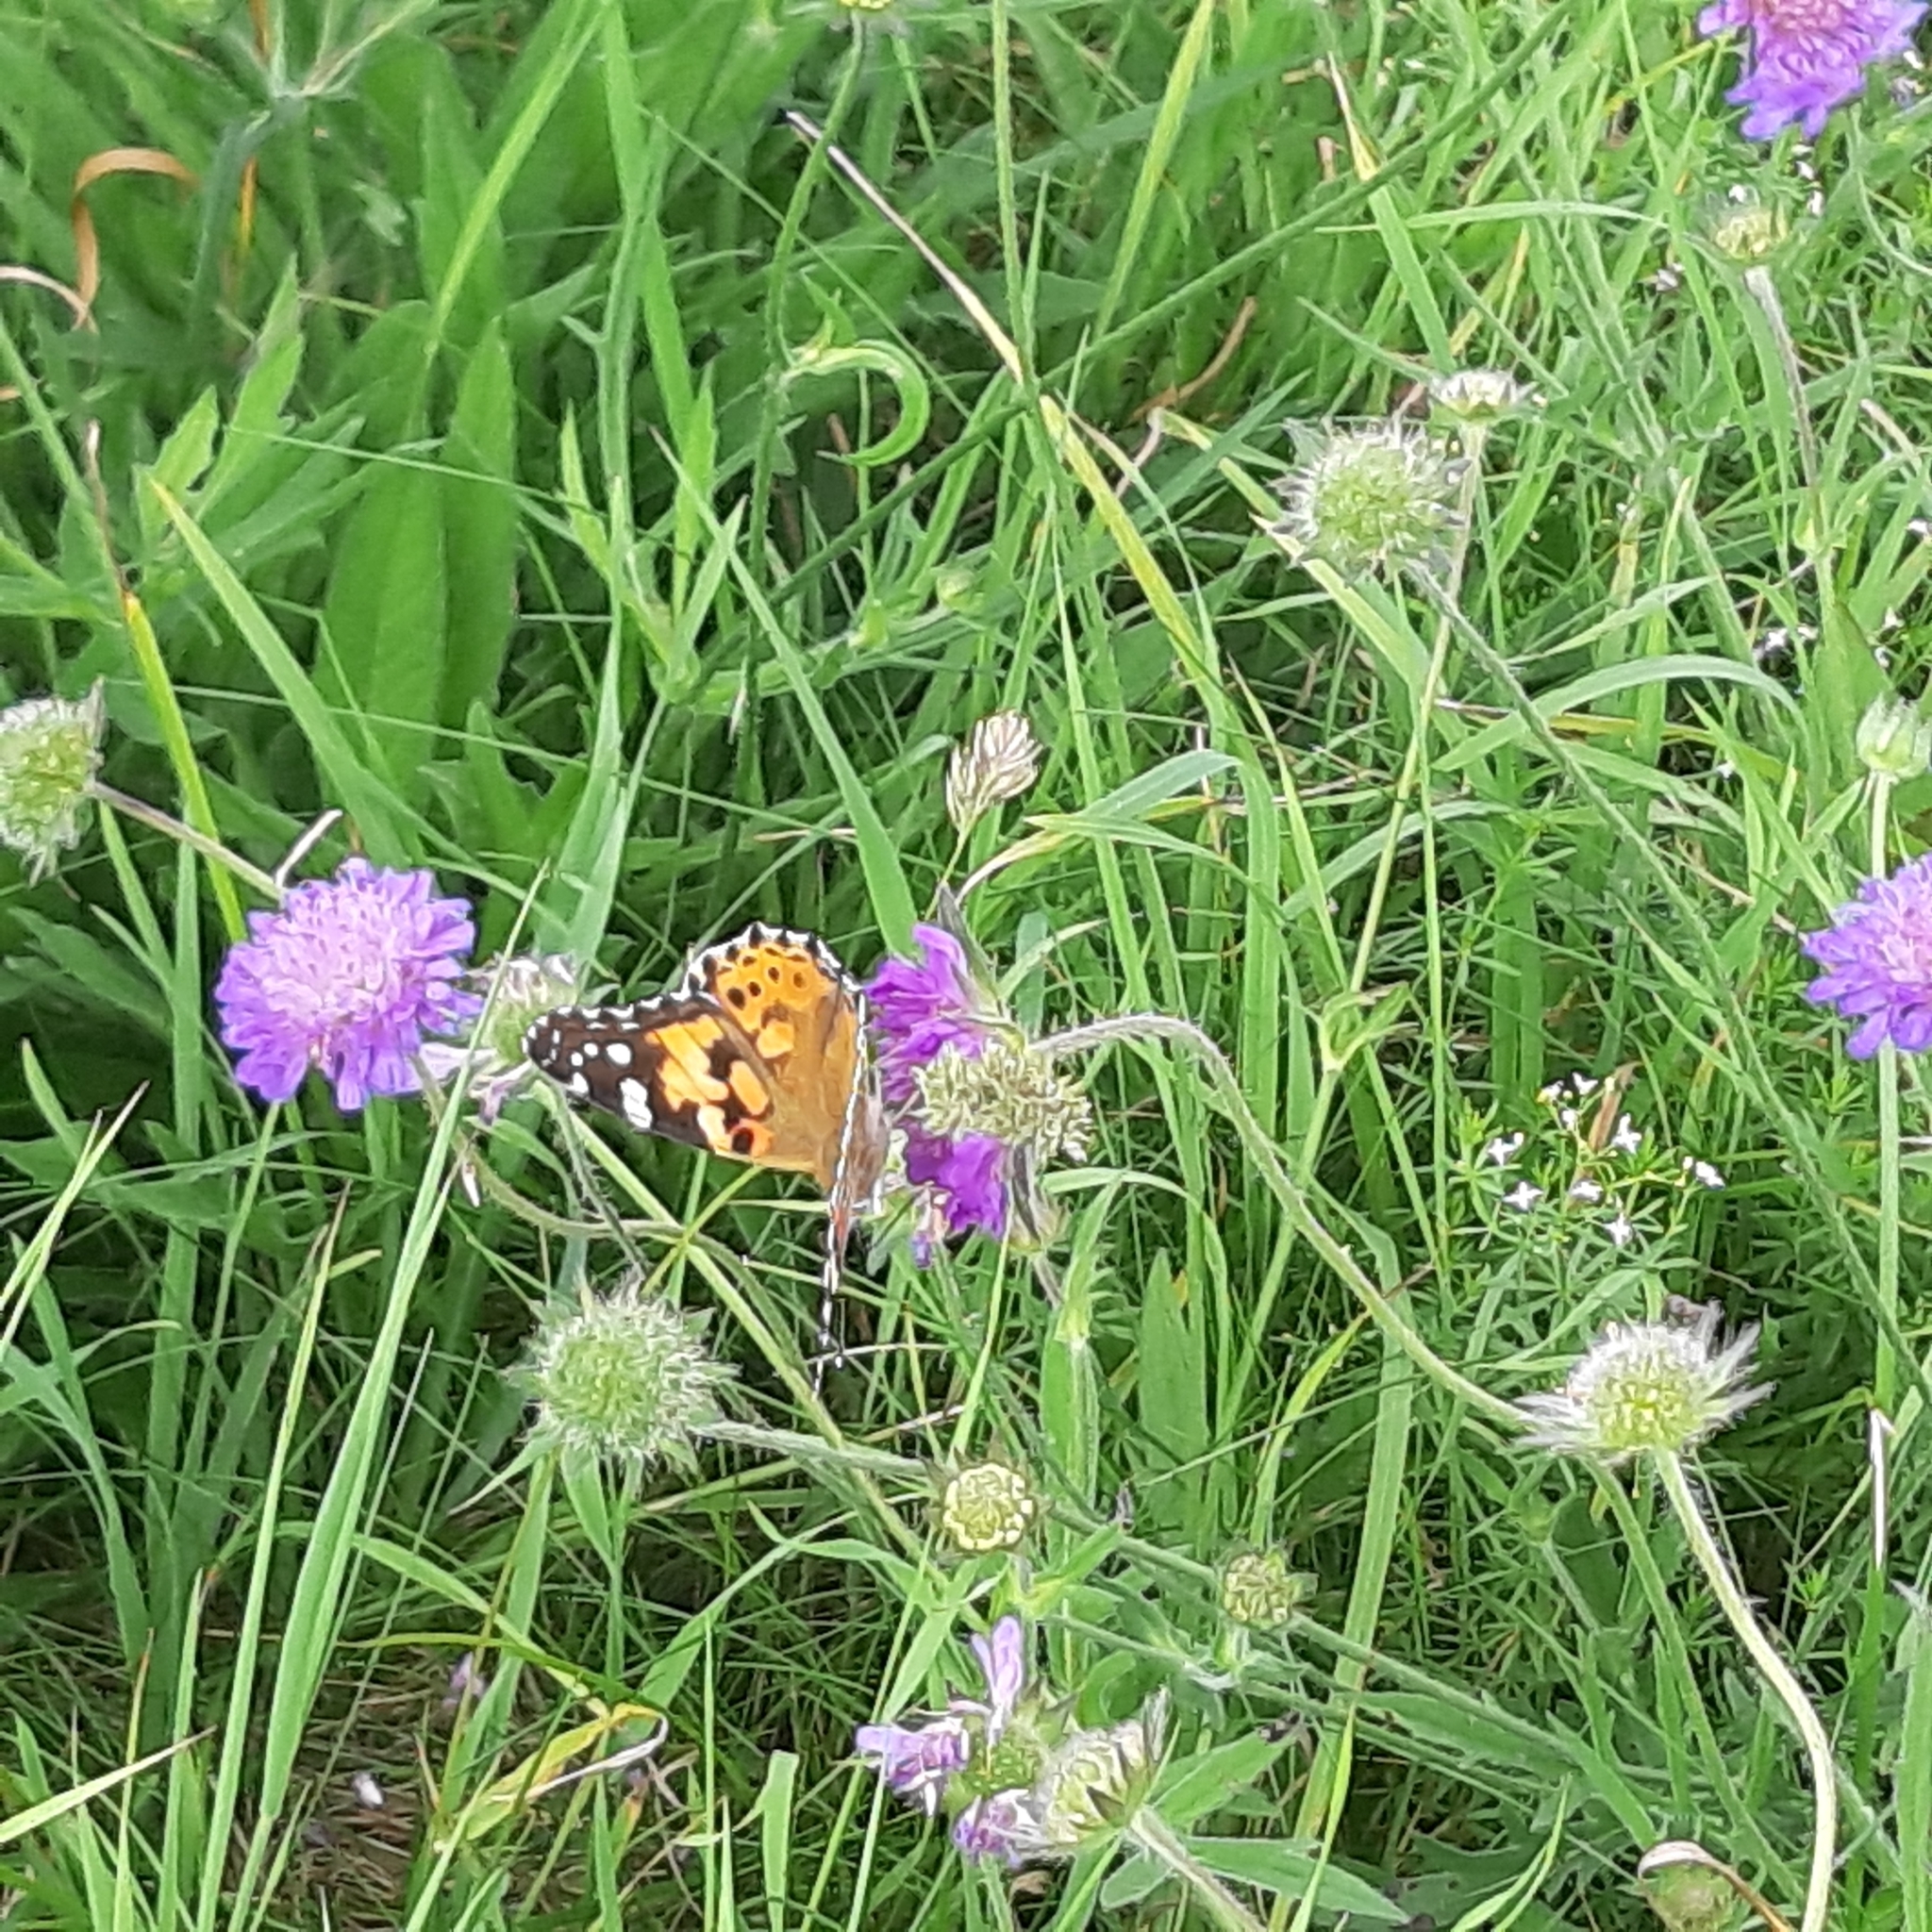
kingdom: Animalia
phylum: Arthropoda
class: Insecta
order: Lepidoptera
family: Nymphalidae
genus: Vanessa
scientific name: Vanessa cardui
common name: Painted lady
